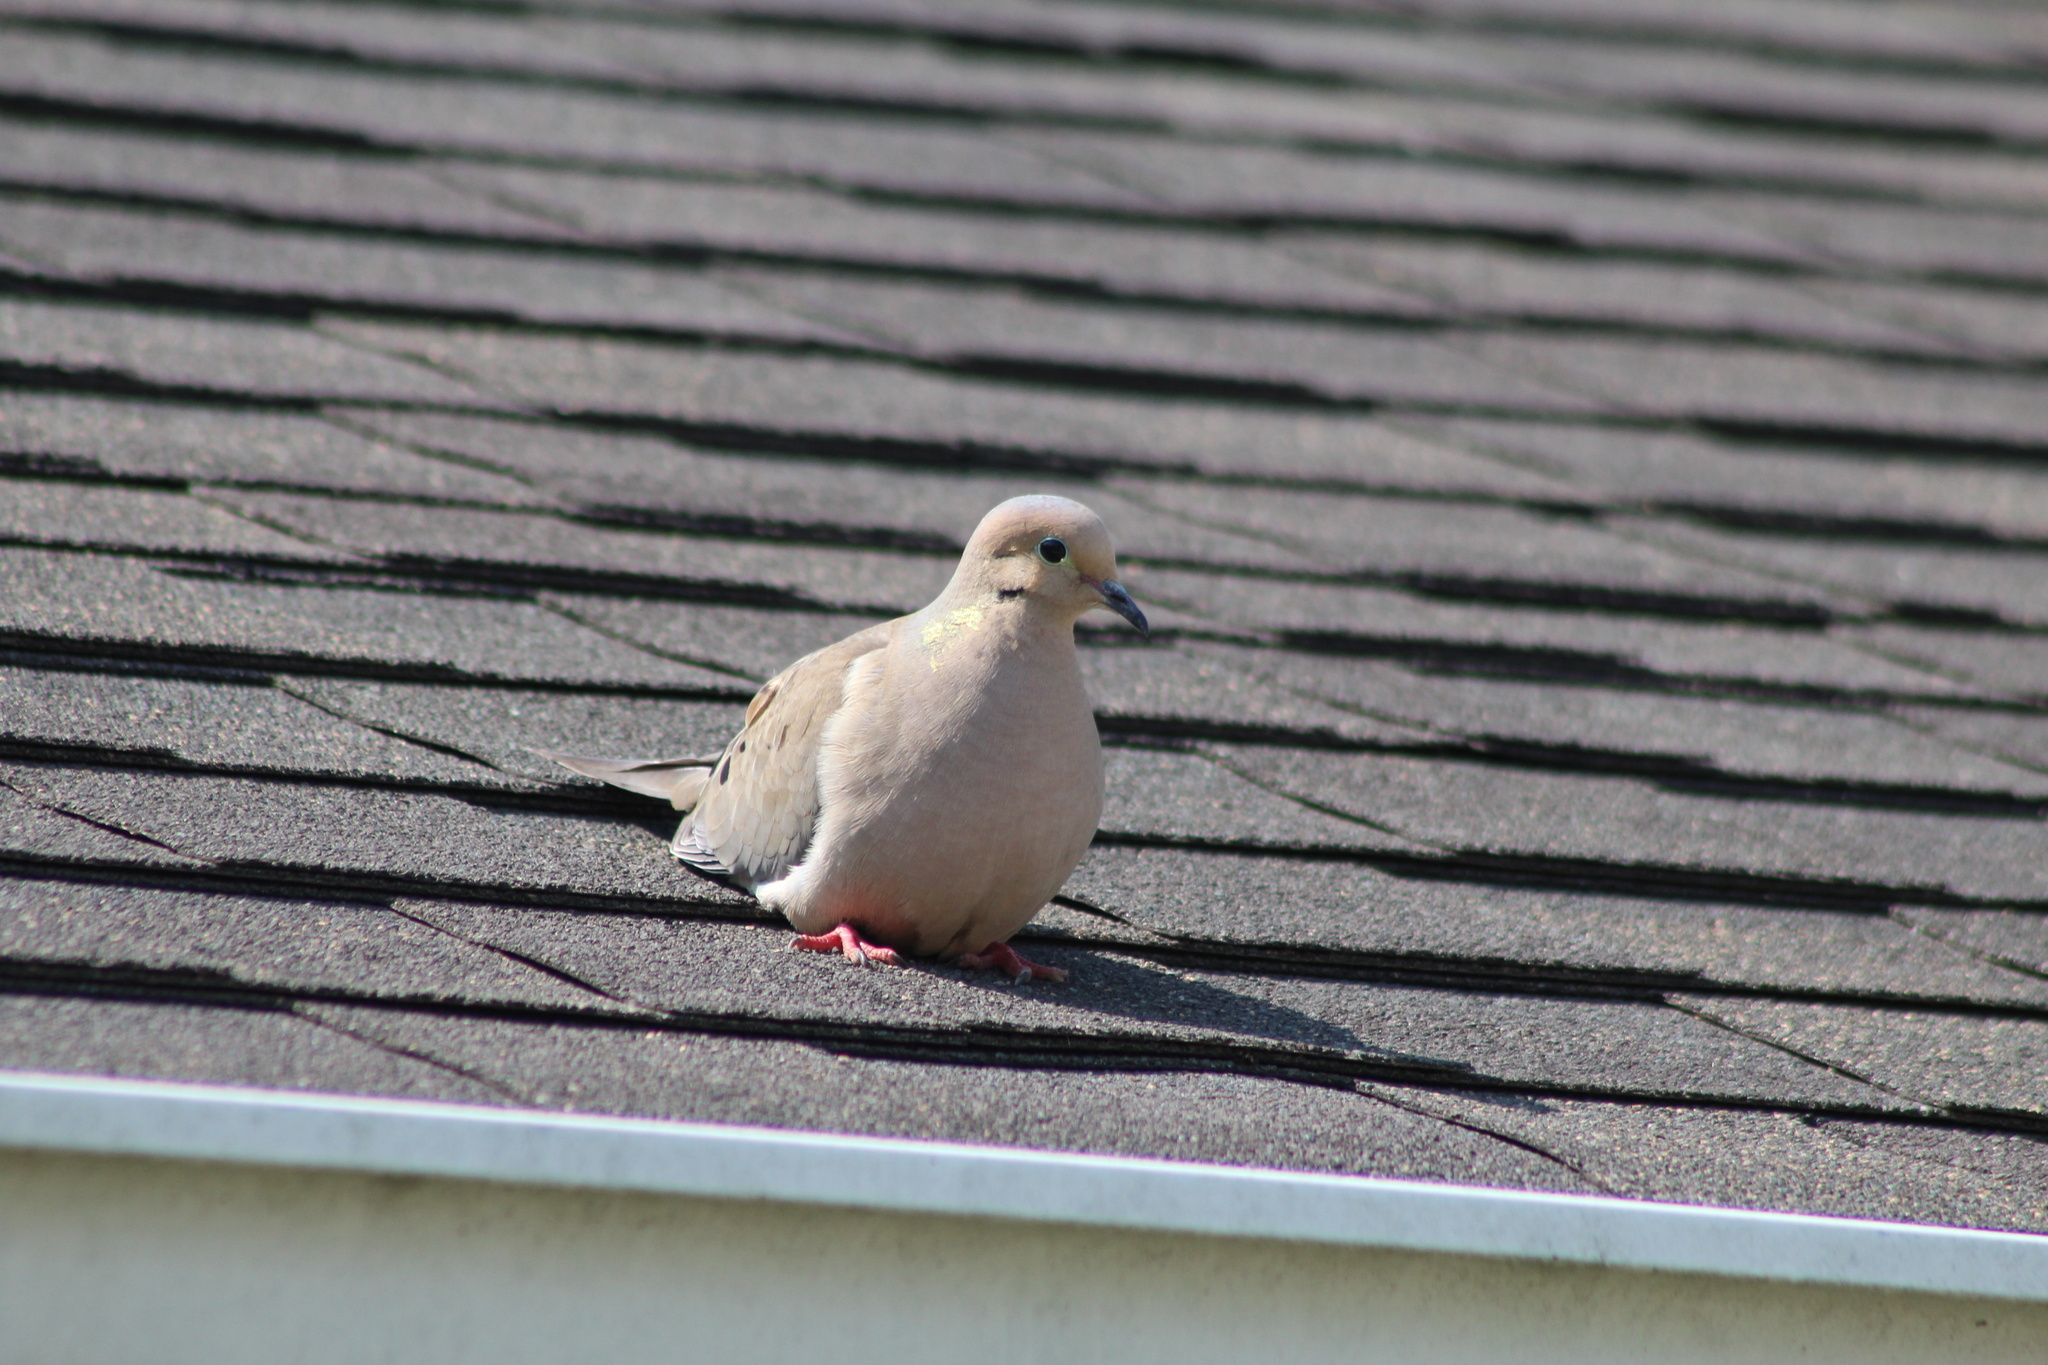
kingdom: Animalia
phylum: Chordata
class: Aves
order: Columbiformes
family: Columbidae
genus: Zenaida
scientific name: Zenaida macroura
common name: Mourning dove
